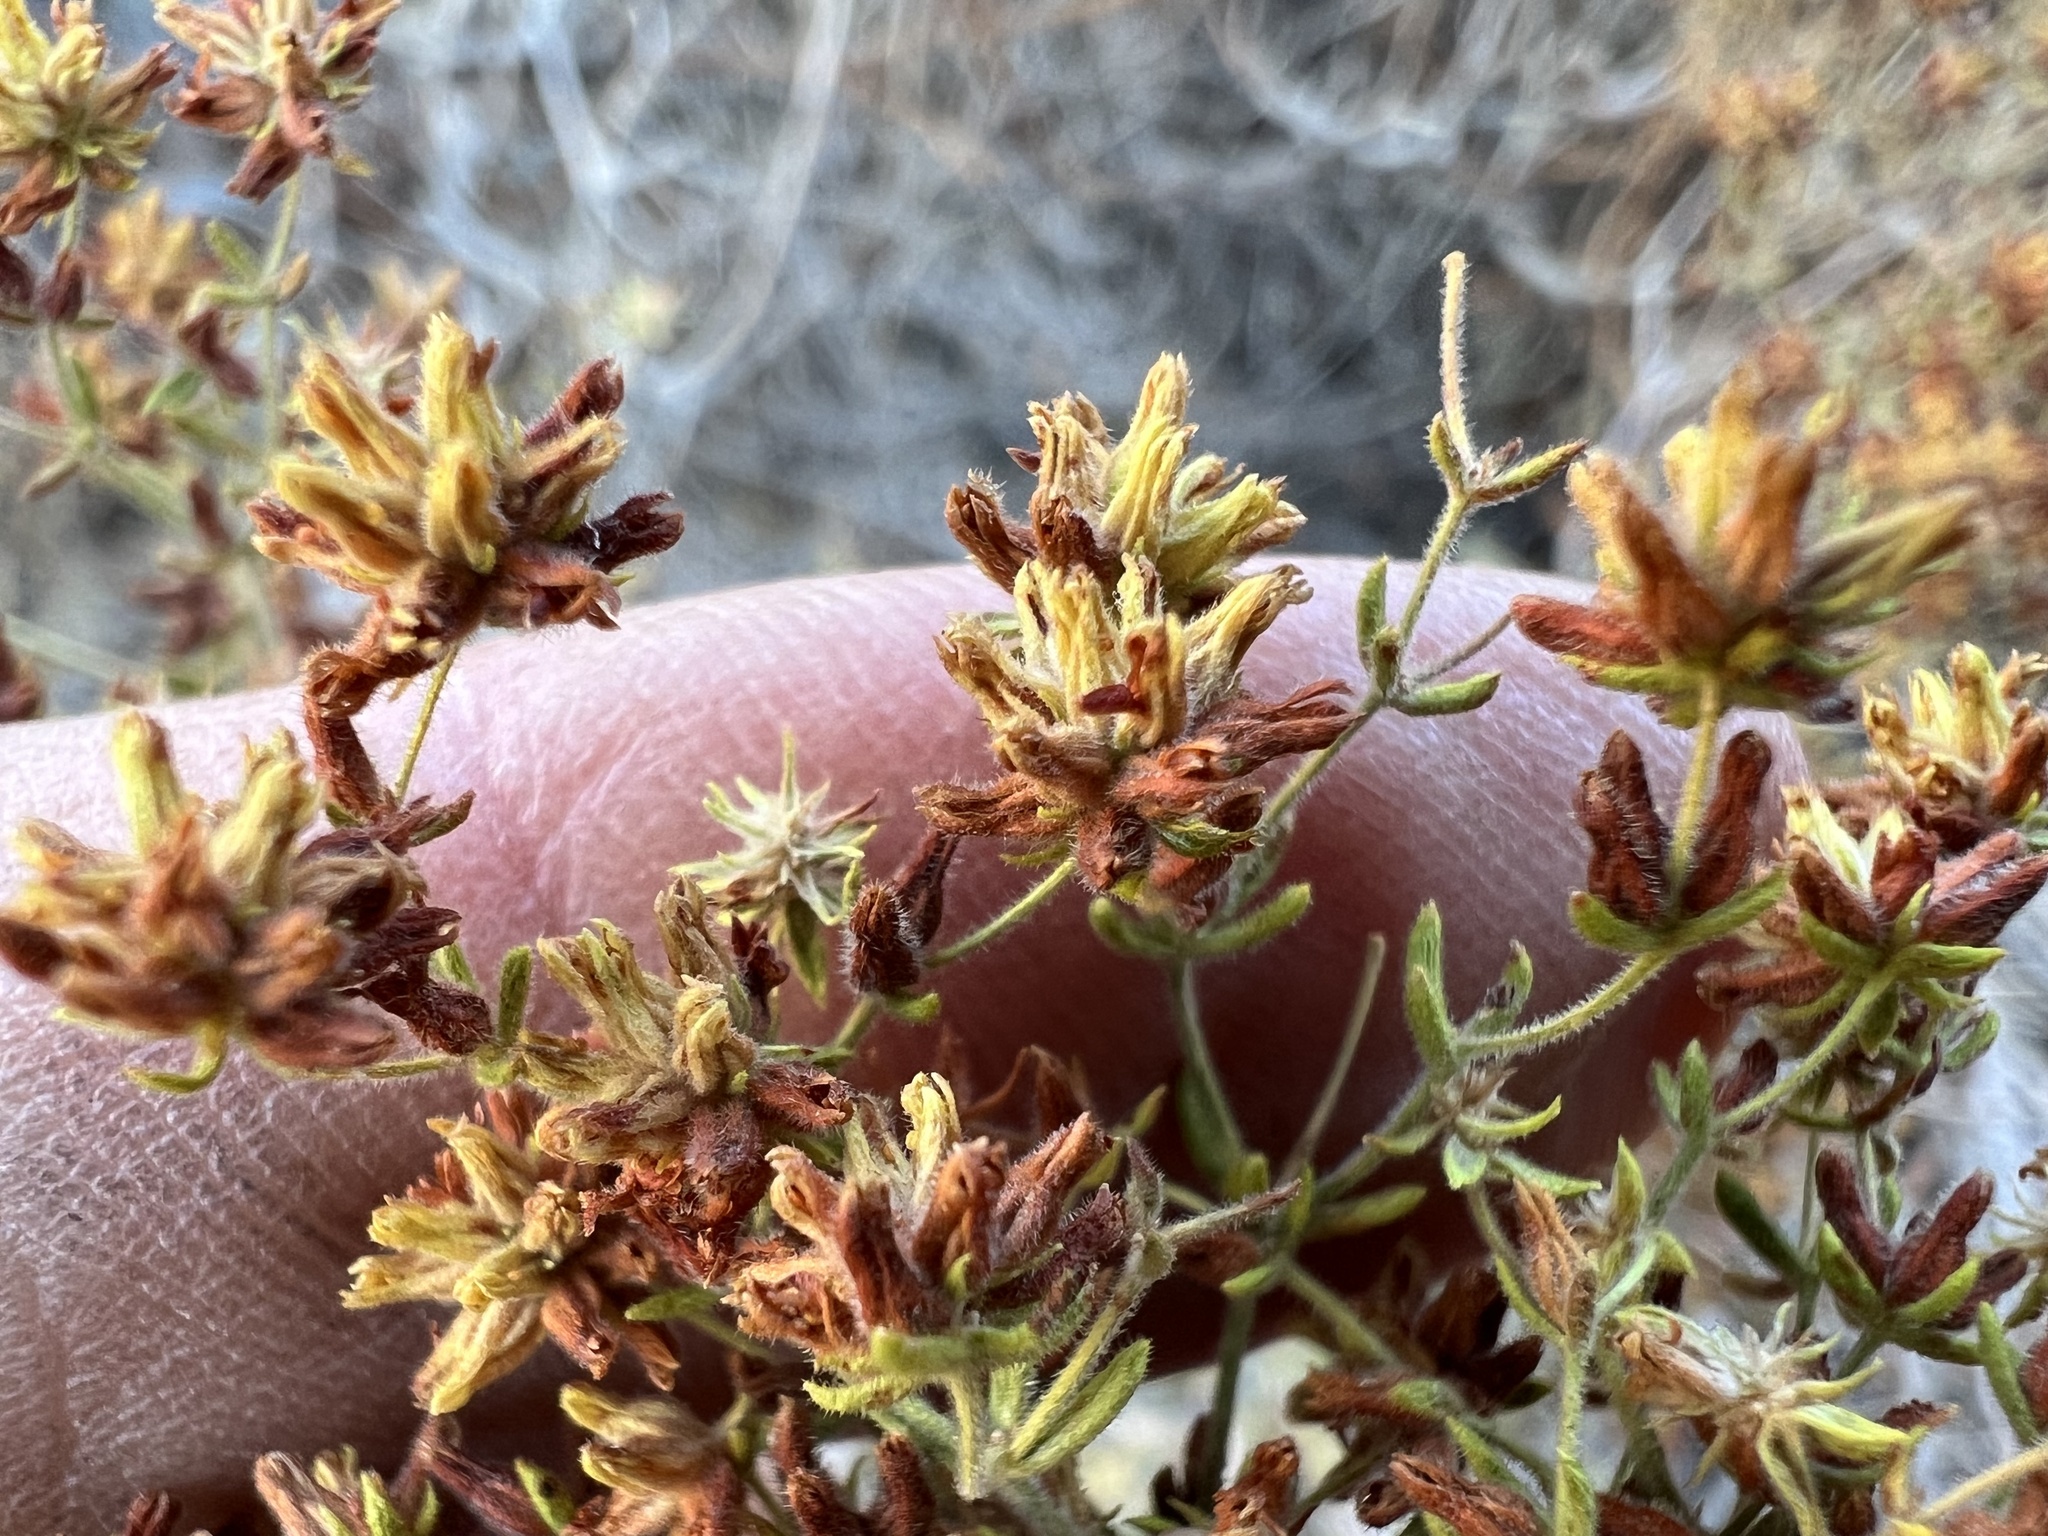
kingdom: Plantae
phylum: Tracheophyta
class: Magnoliopsida
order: Caryophyllales
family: Polygonaceae
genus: Dedeckera
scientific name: Dedeckera eurekensis
